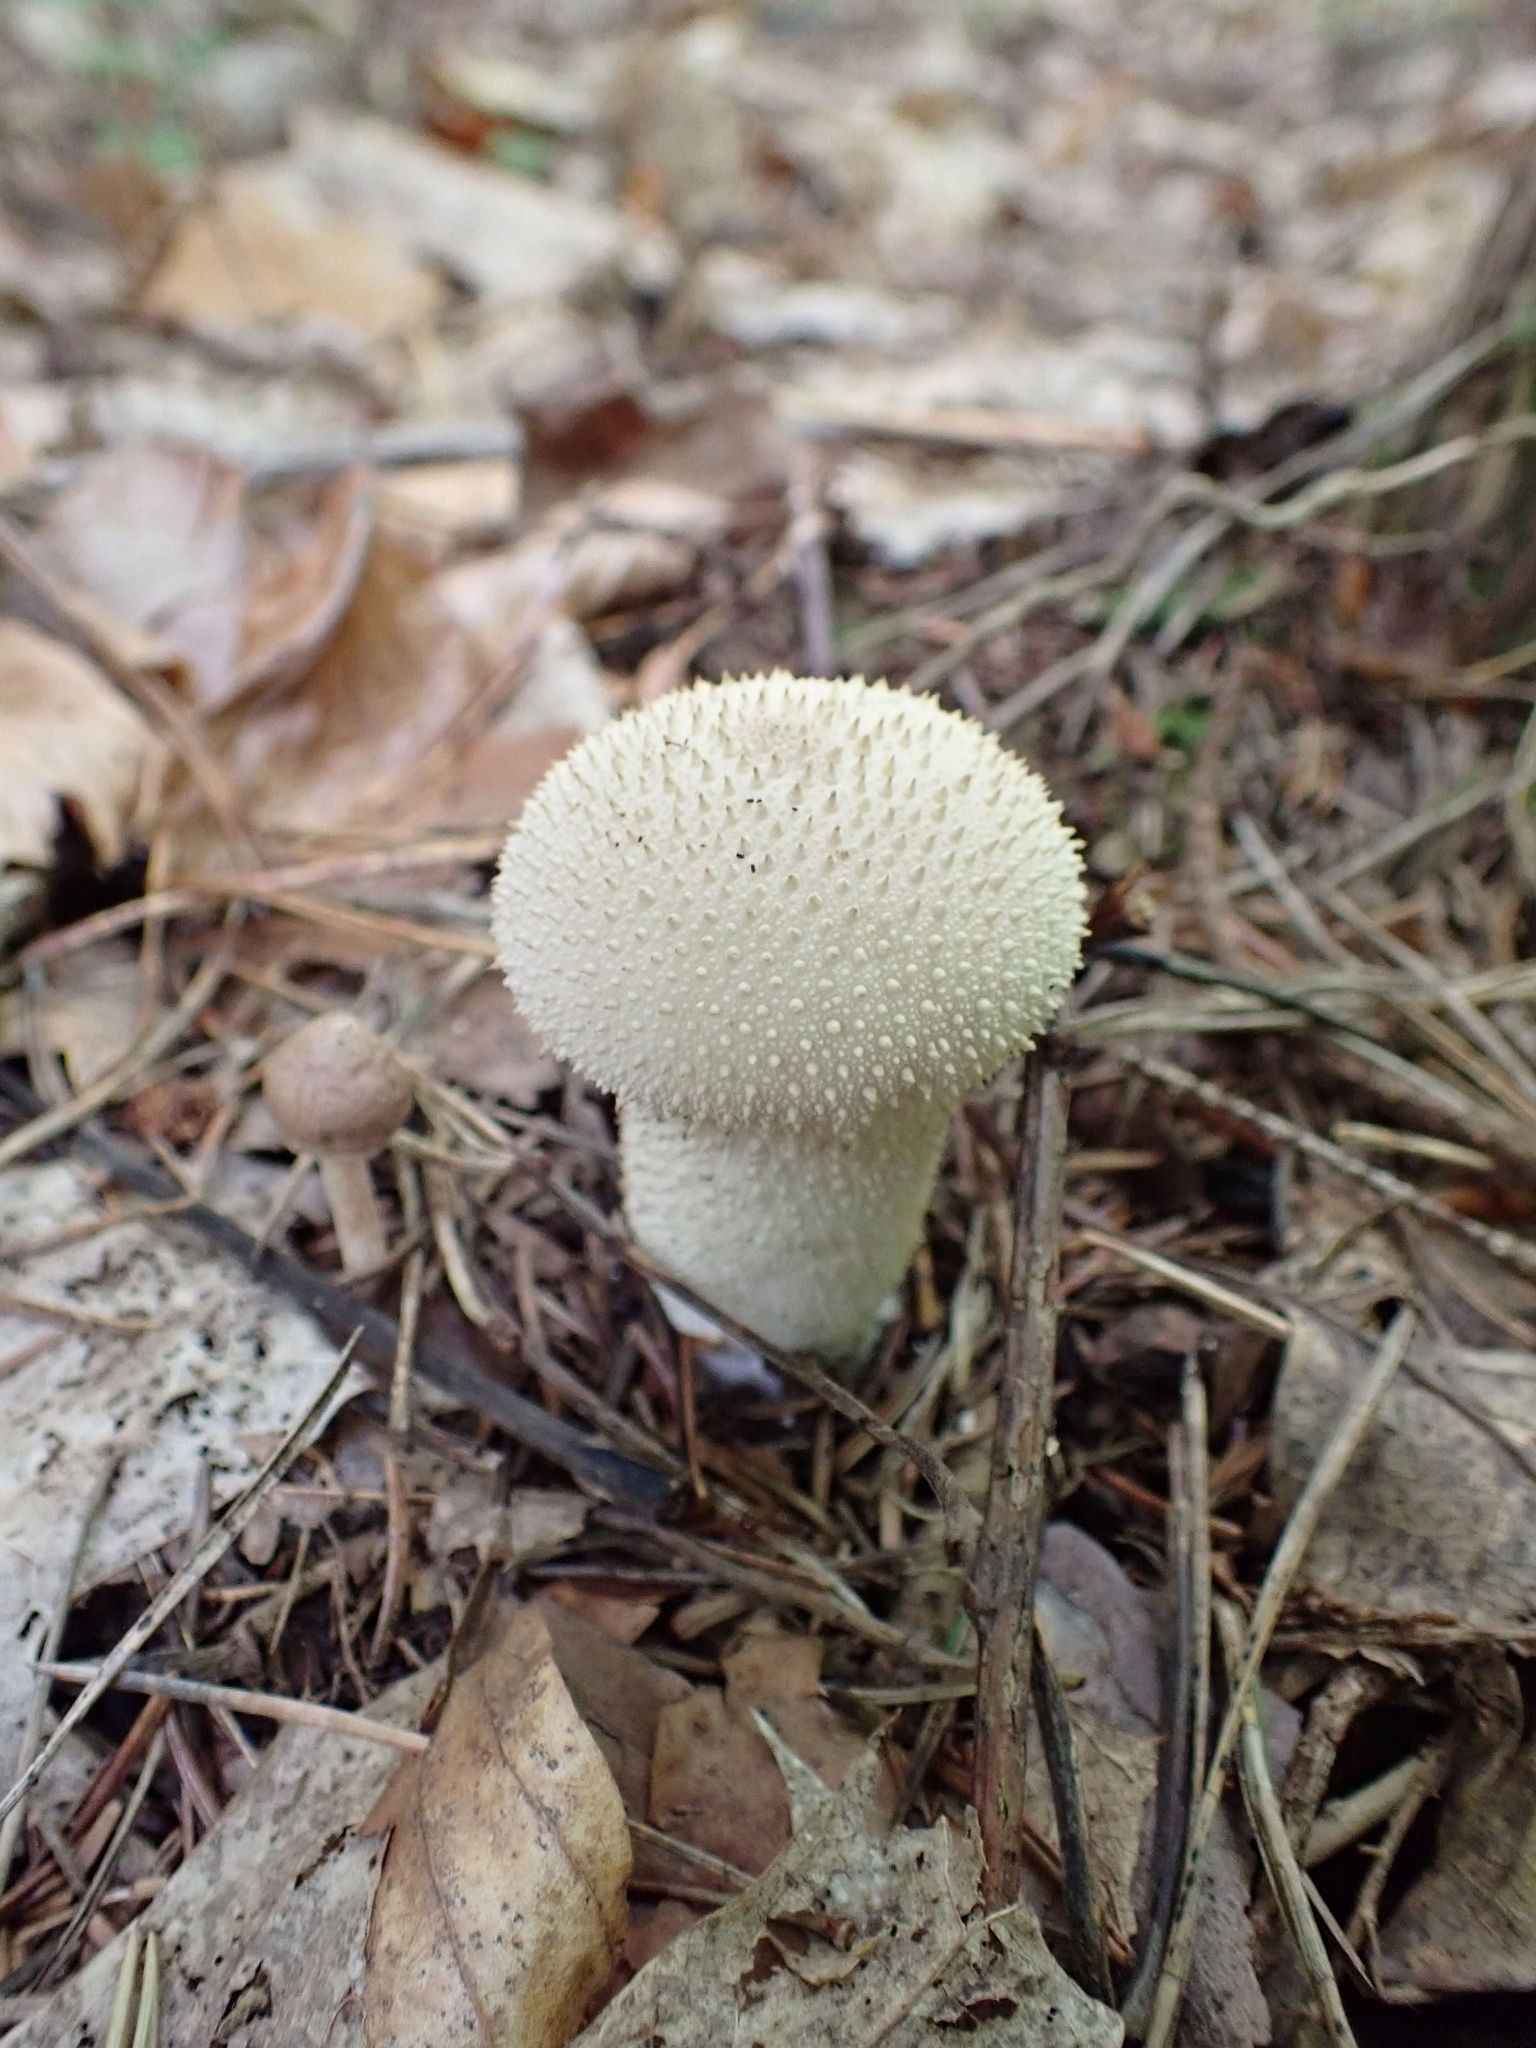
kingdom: Fungi
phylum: Basidiomycota
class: Agaricomycetes
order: Agaricales
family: Lycoperdaceae
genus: Lycoperdon
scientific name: Lycoperdon perlatum
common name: Common puffball
